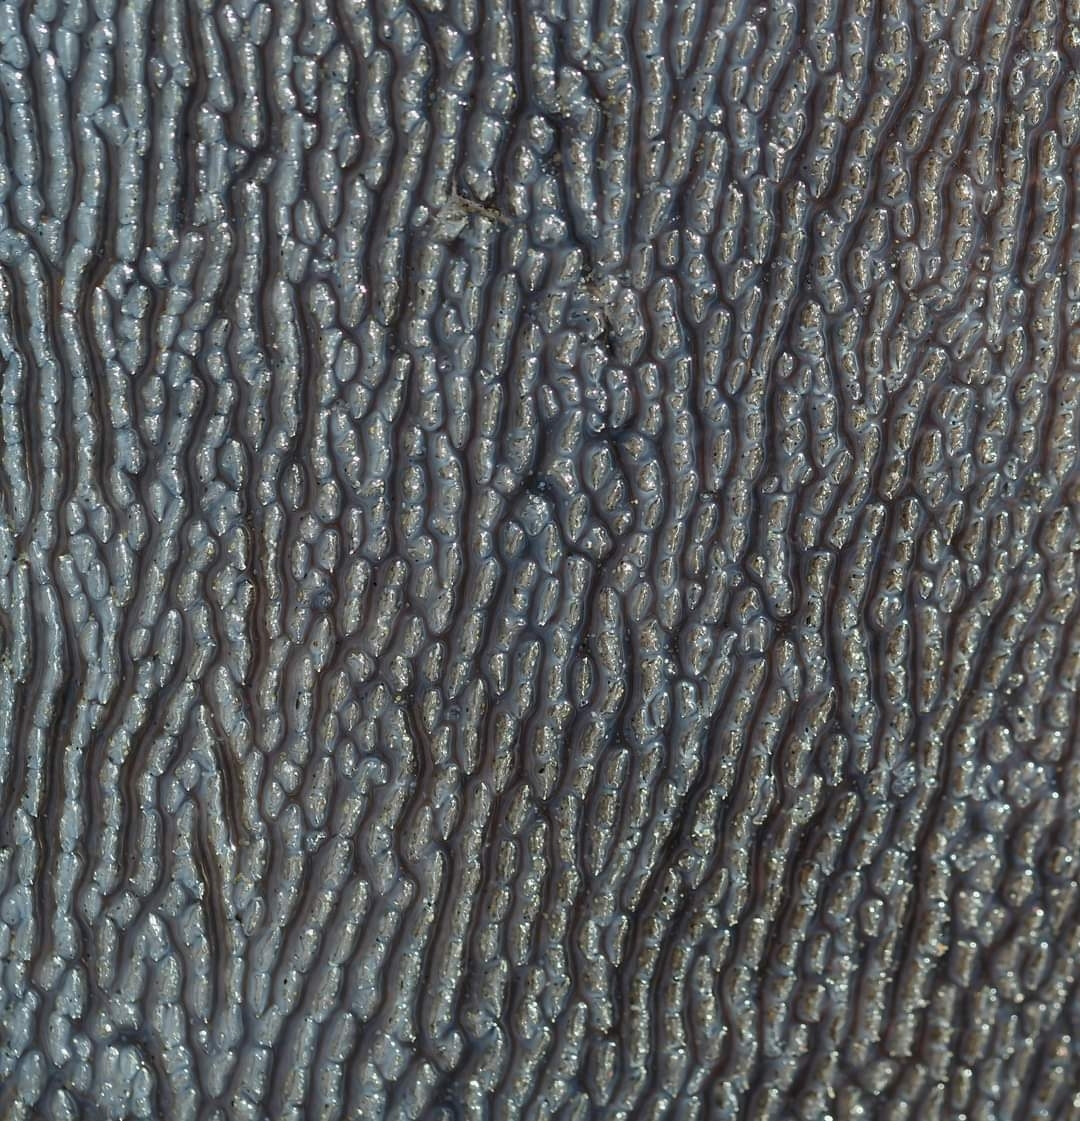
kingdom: Animalia
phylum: Chordata
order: Tetraodontiformes
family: Molidae
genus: Mola
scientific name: Mola mola
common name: Ocean sunfish
